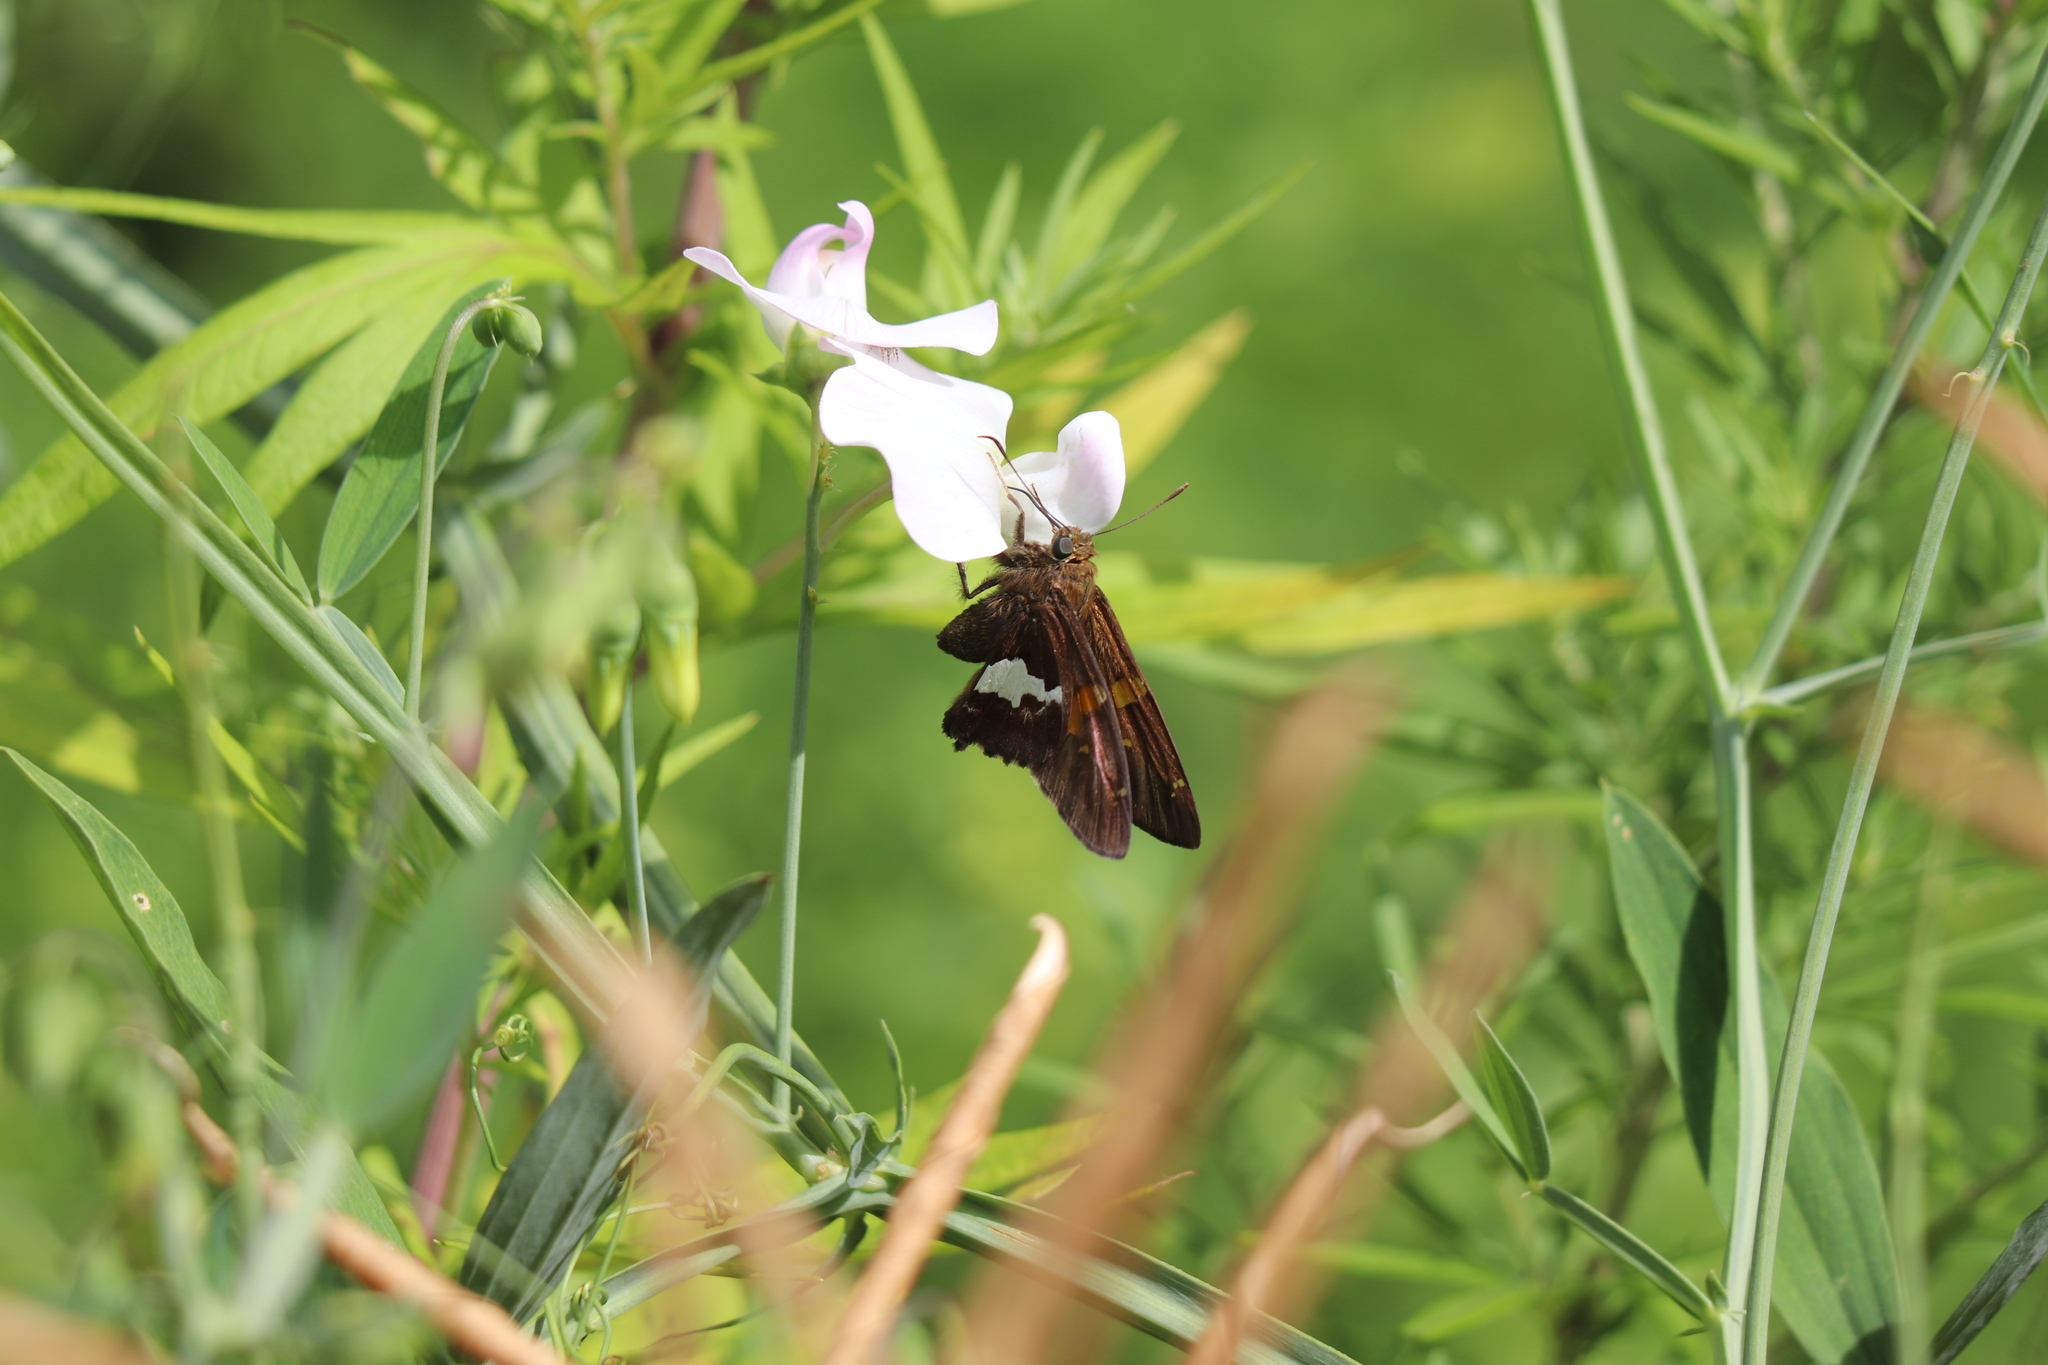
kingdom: Animalia
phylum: Arthropoda
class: Insecta
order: Lepidoptera
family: Hesperiidae
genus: Epargyreus
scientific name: Epargyreus clarus
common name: Silver-spotted skipper
